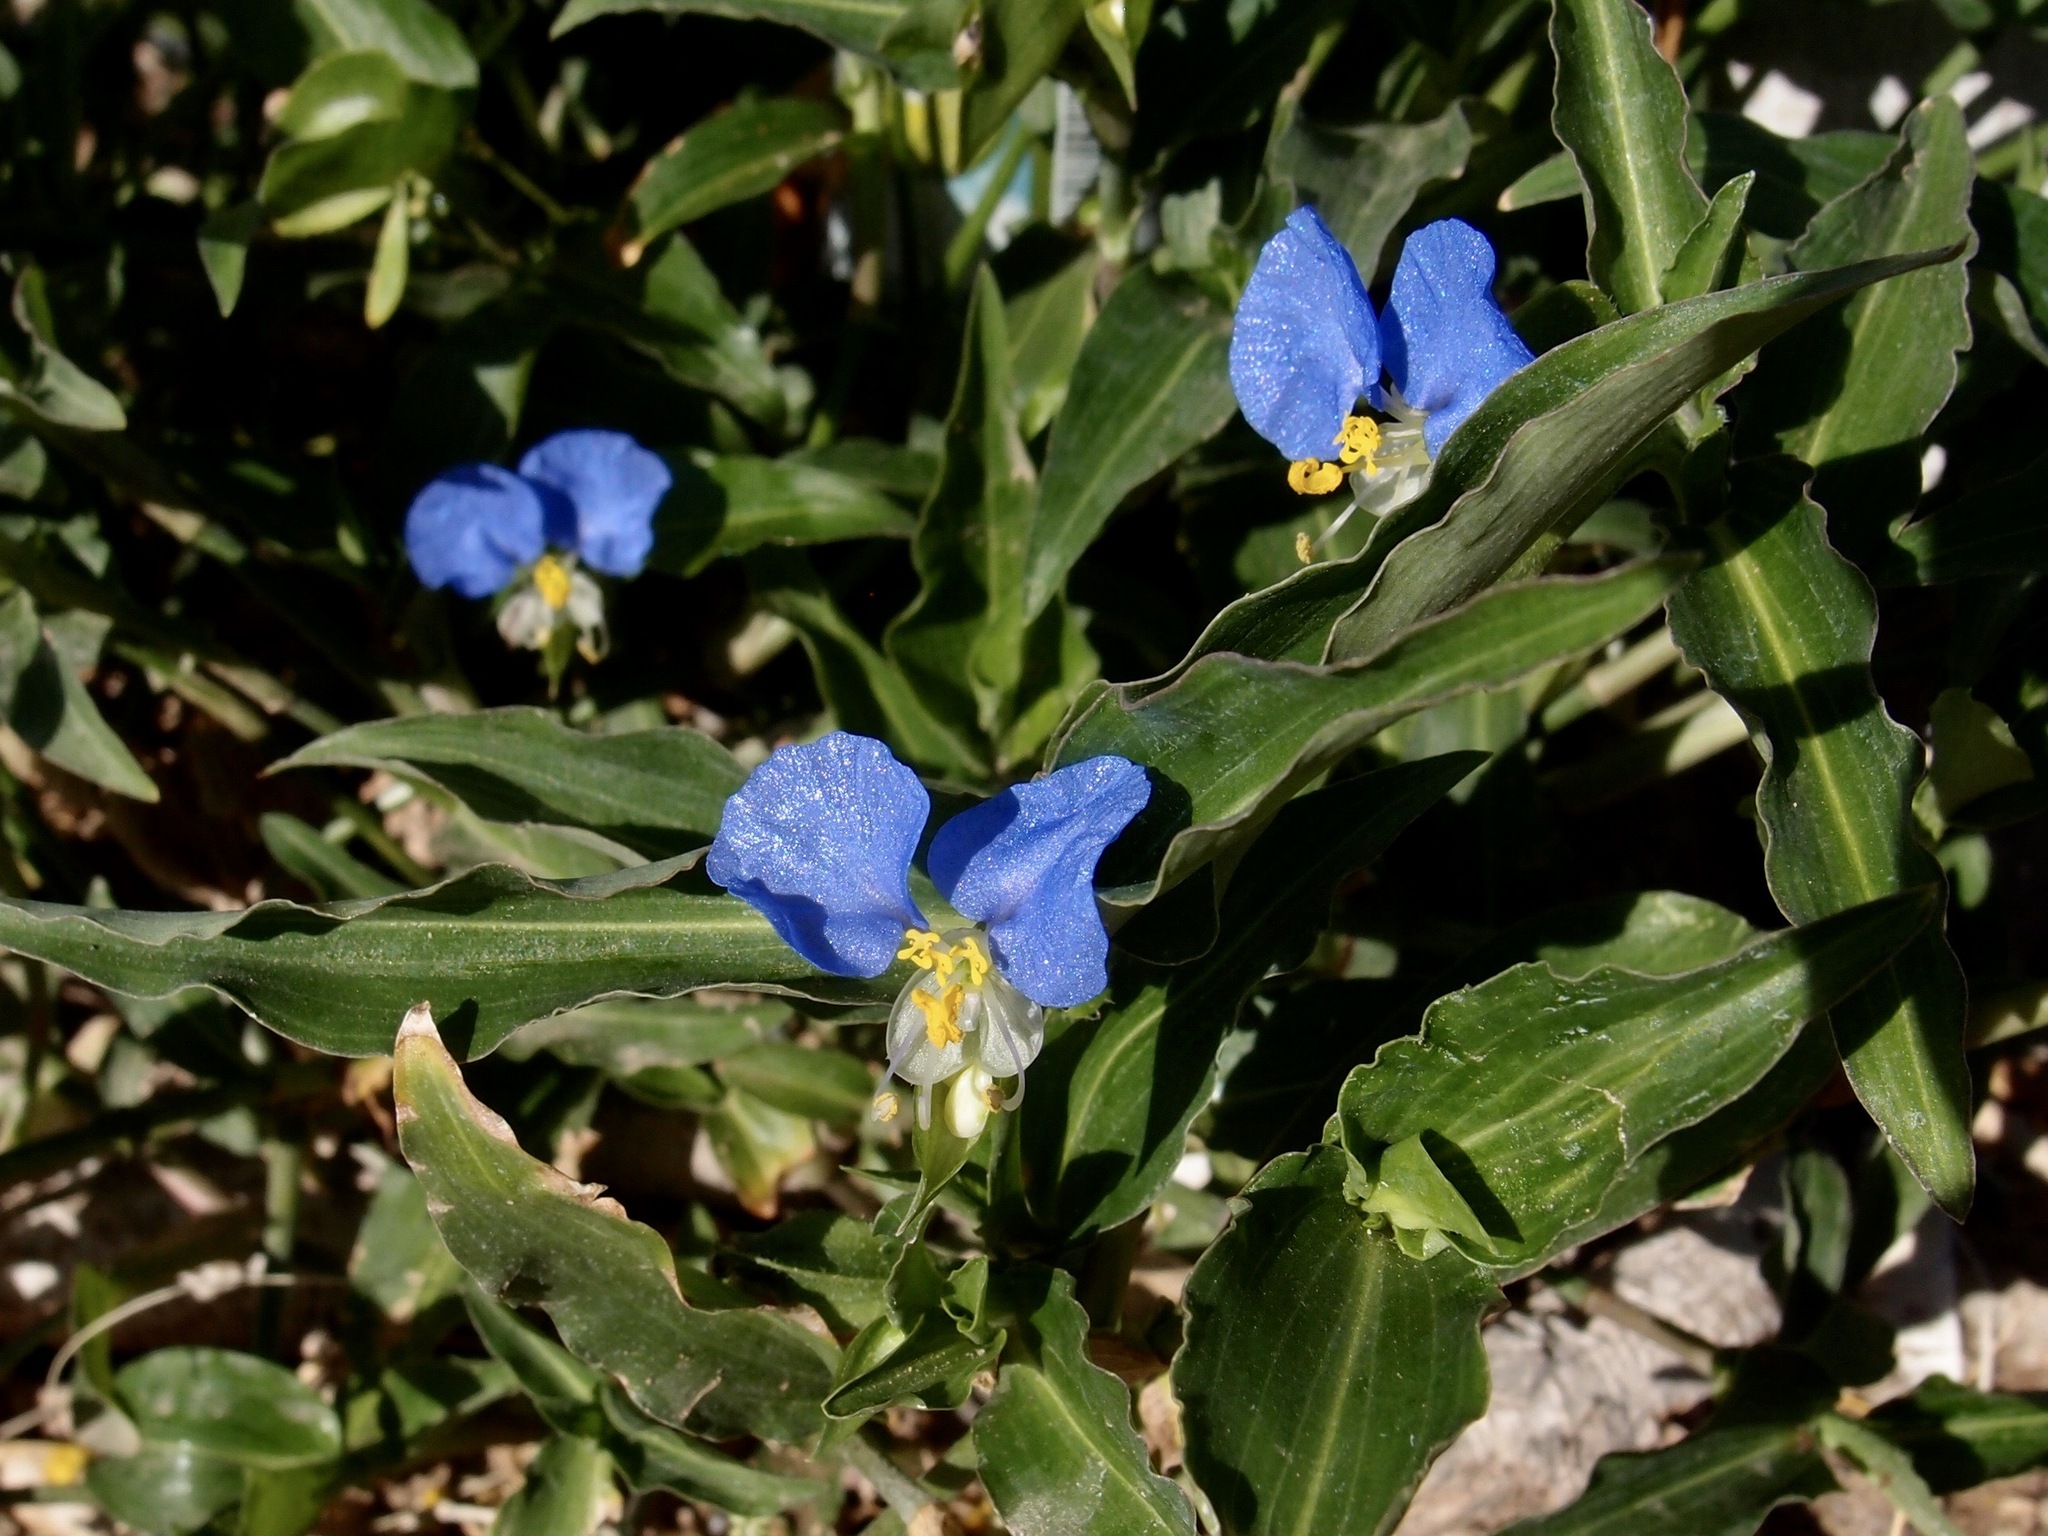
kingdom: Plantae
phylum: Tracheophyta
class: Liliopsida
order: Commelinales
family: Commelinaceae
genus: Commelina
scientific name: Commelina erecta
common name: Blousel blommetjie
